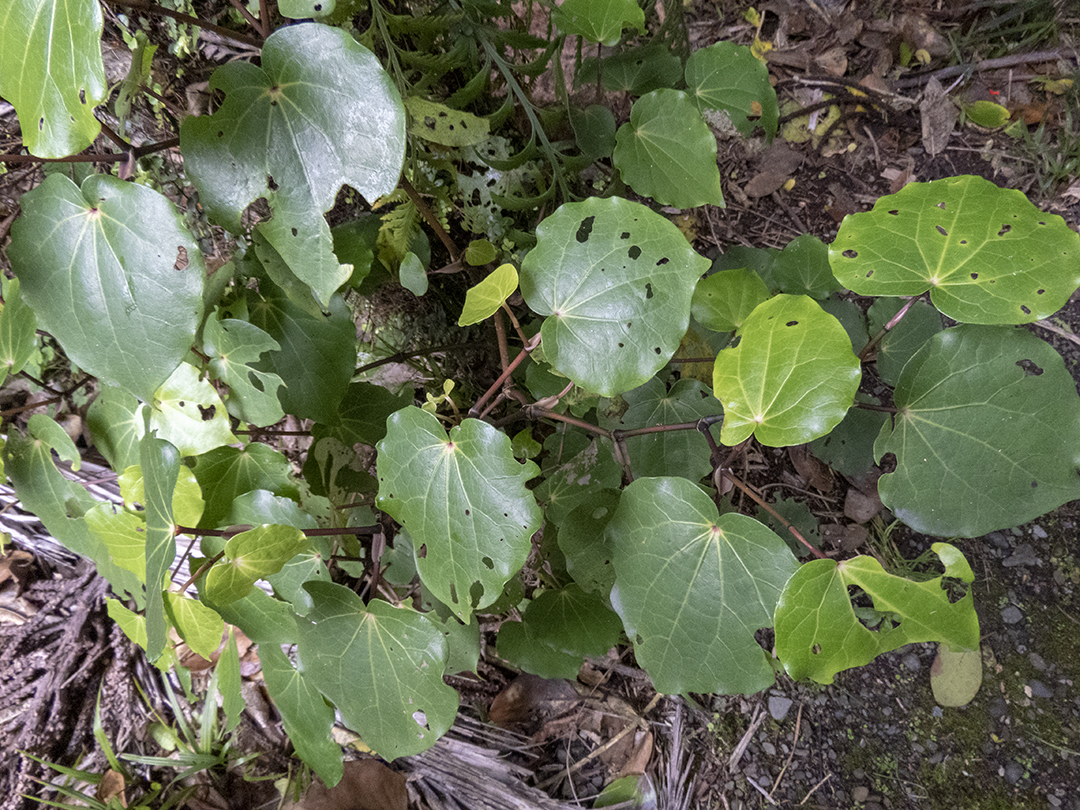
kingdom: Plantae
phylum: Tracheophyta
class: Magnoliopsida
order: Piperales
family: Piperaceae
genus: Macropiper
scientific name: Macropiper excelsum
